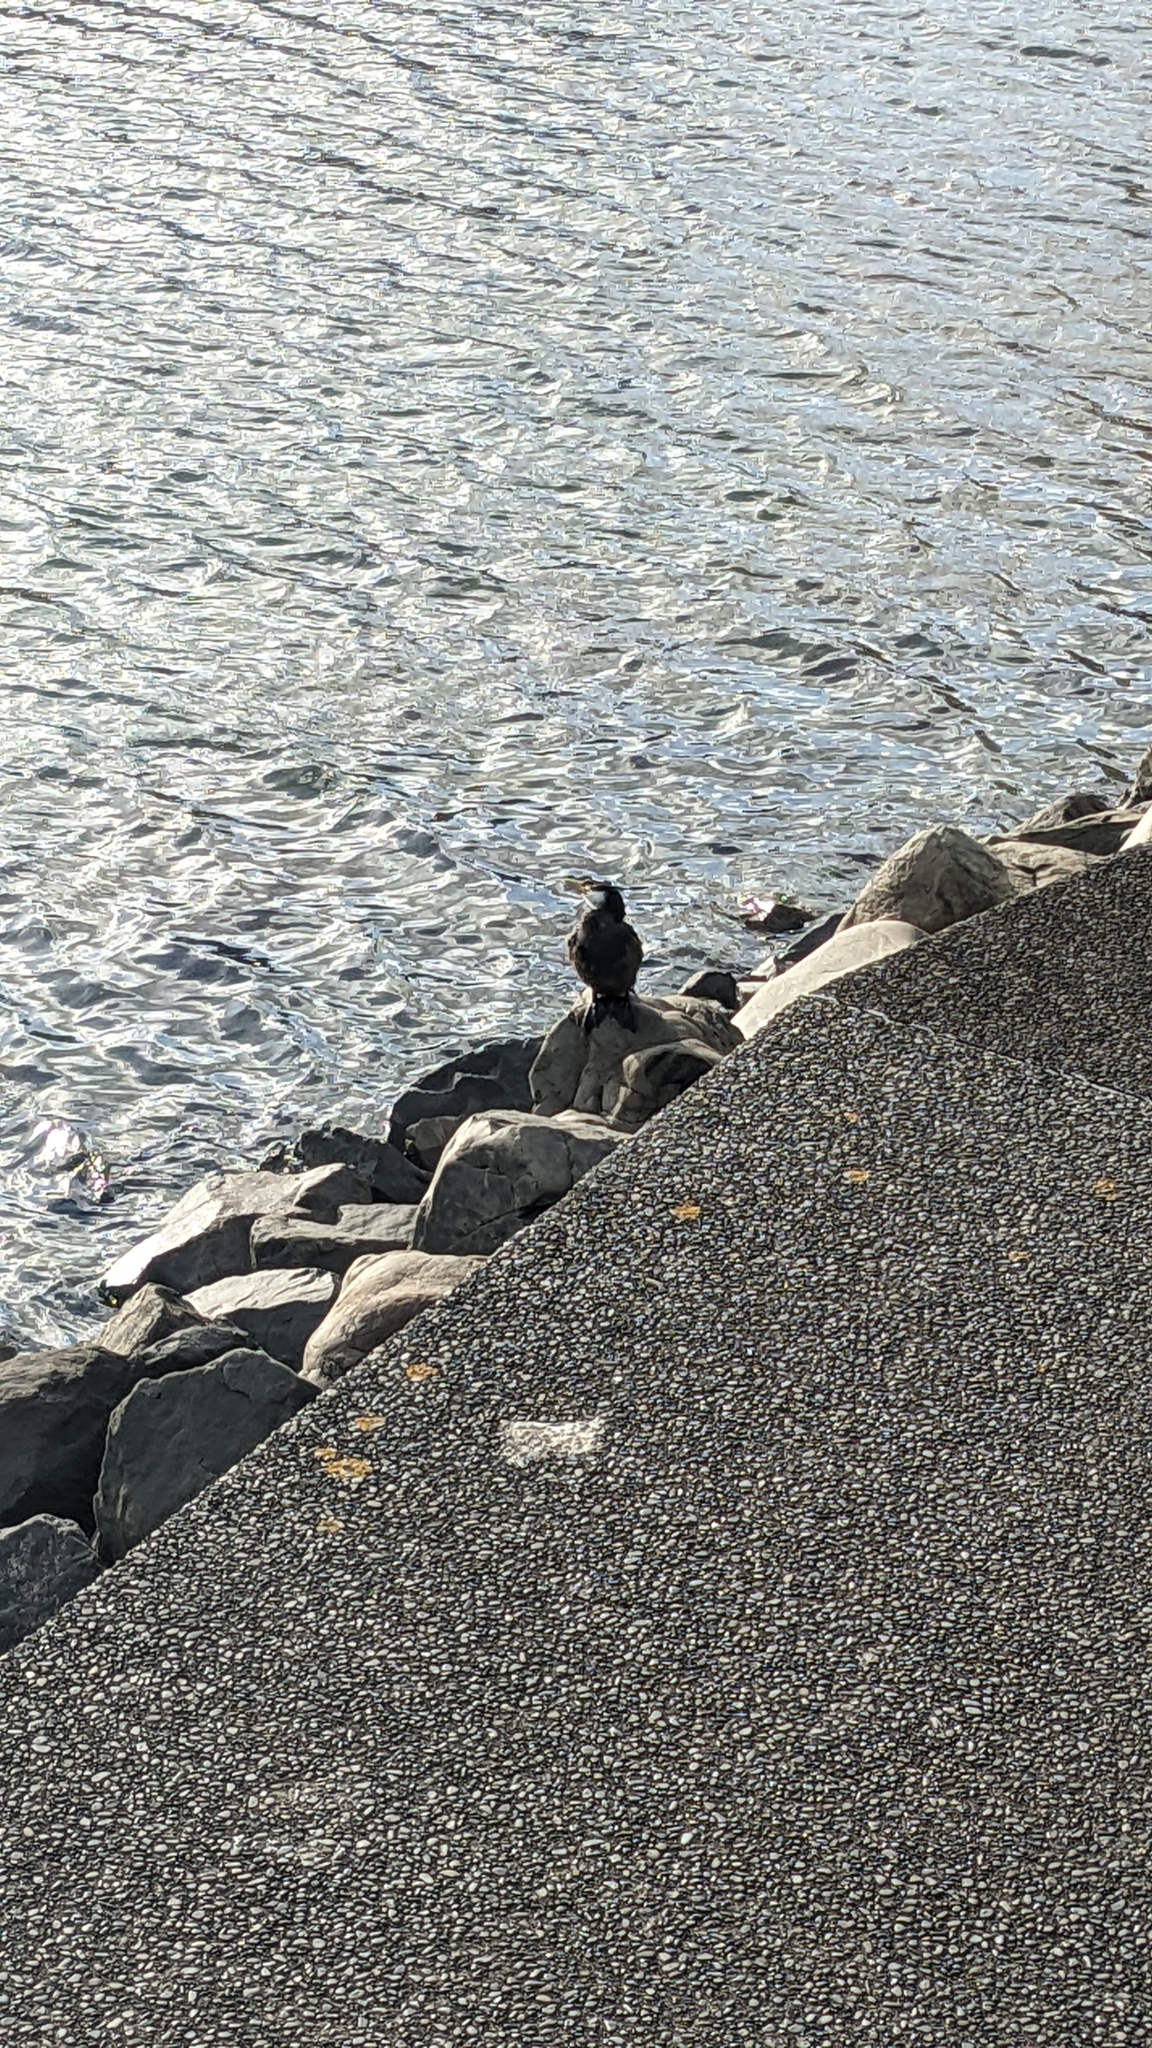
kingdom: Animalia
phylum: Chordata
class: Aves
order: Suliformes
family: Phalacrocoracidae
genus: Microcarbo
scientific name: Microcarbo melanoleucos
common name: Little pied cormorant
